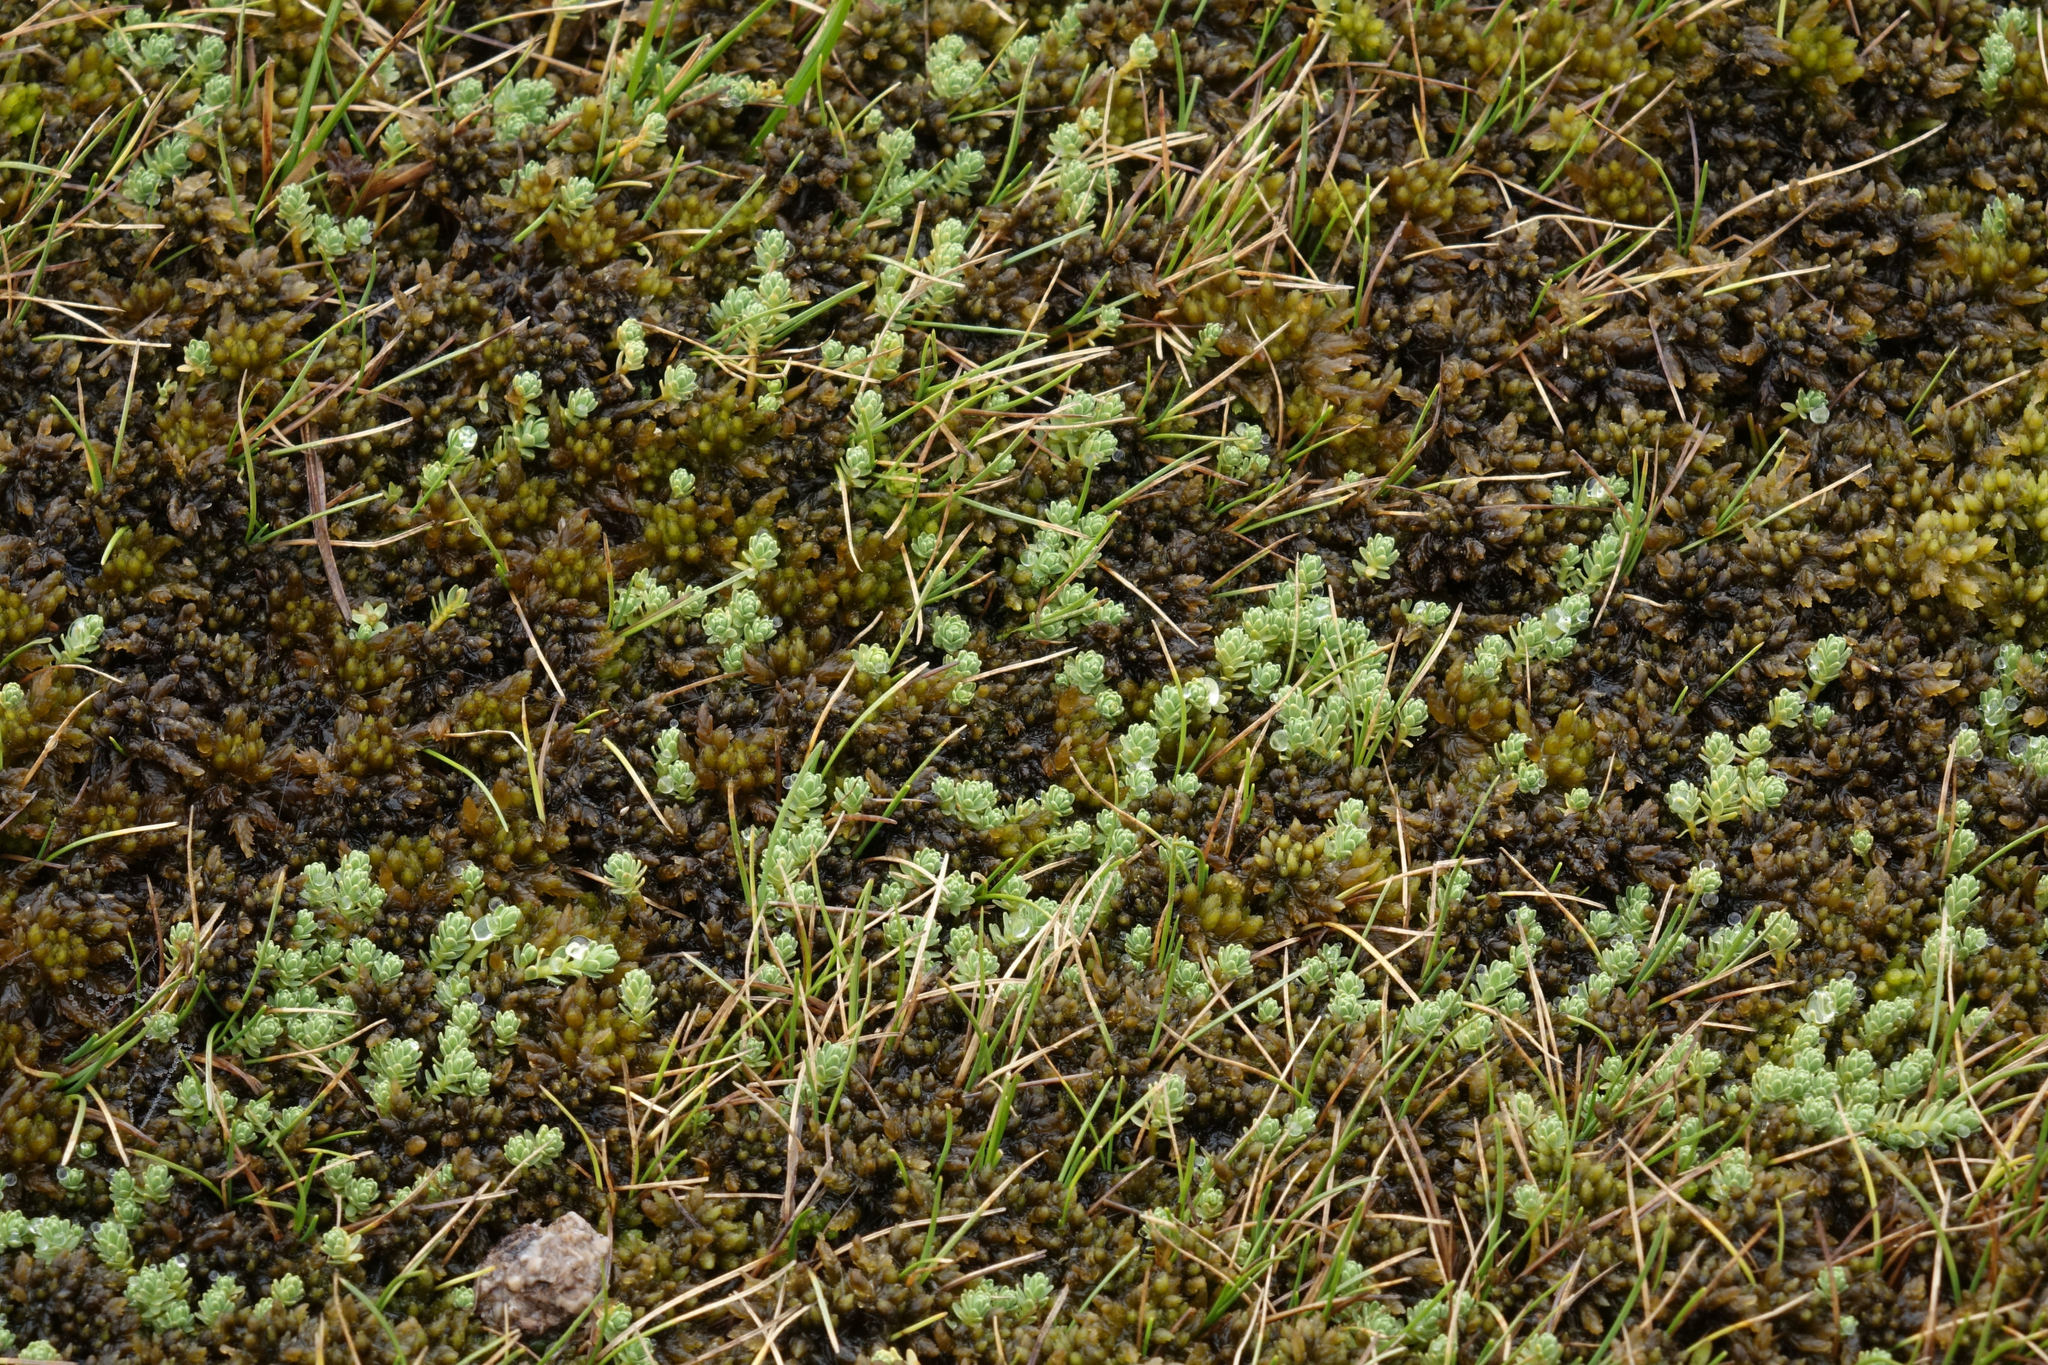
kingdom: Plantae
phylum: Tracheophyta
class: Magnoliopsida
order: Malvales
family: Thymelaeaceae
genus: Kelleria
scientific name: Kelleria paludosa
